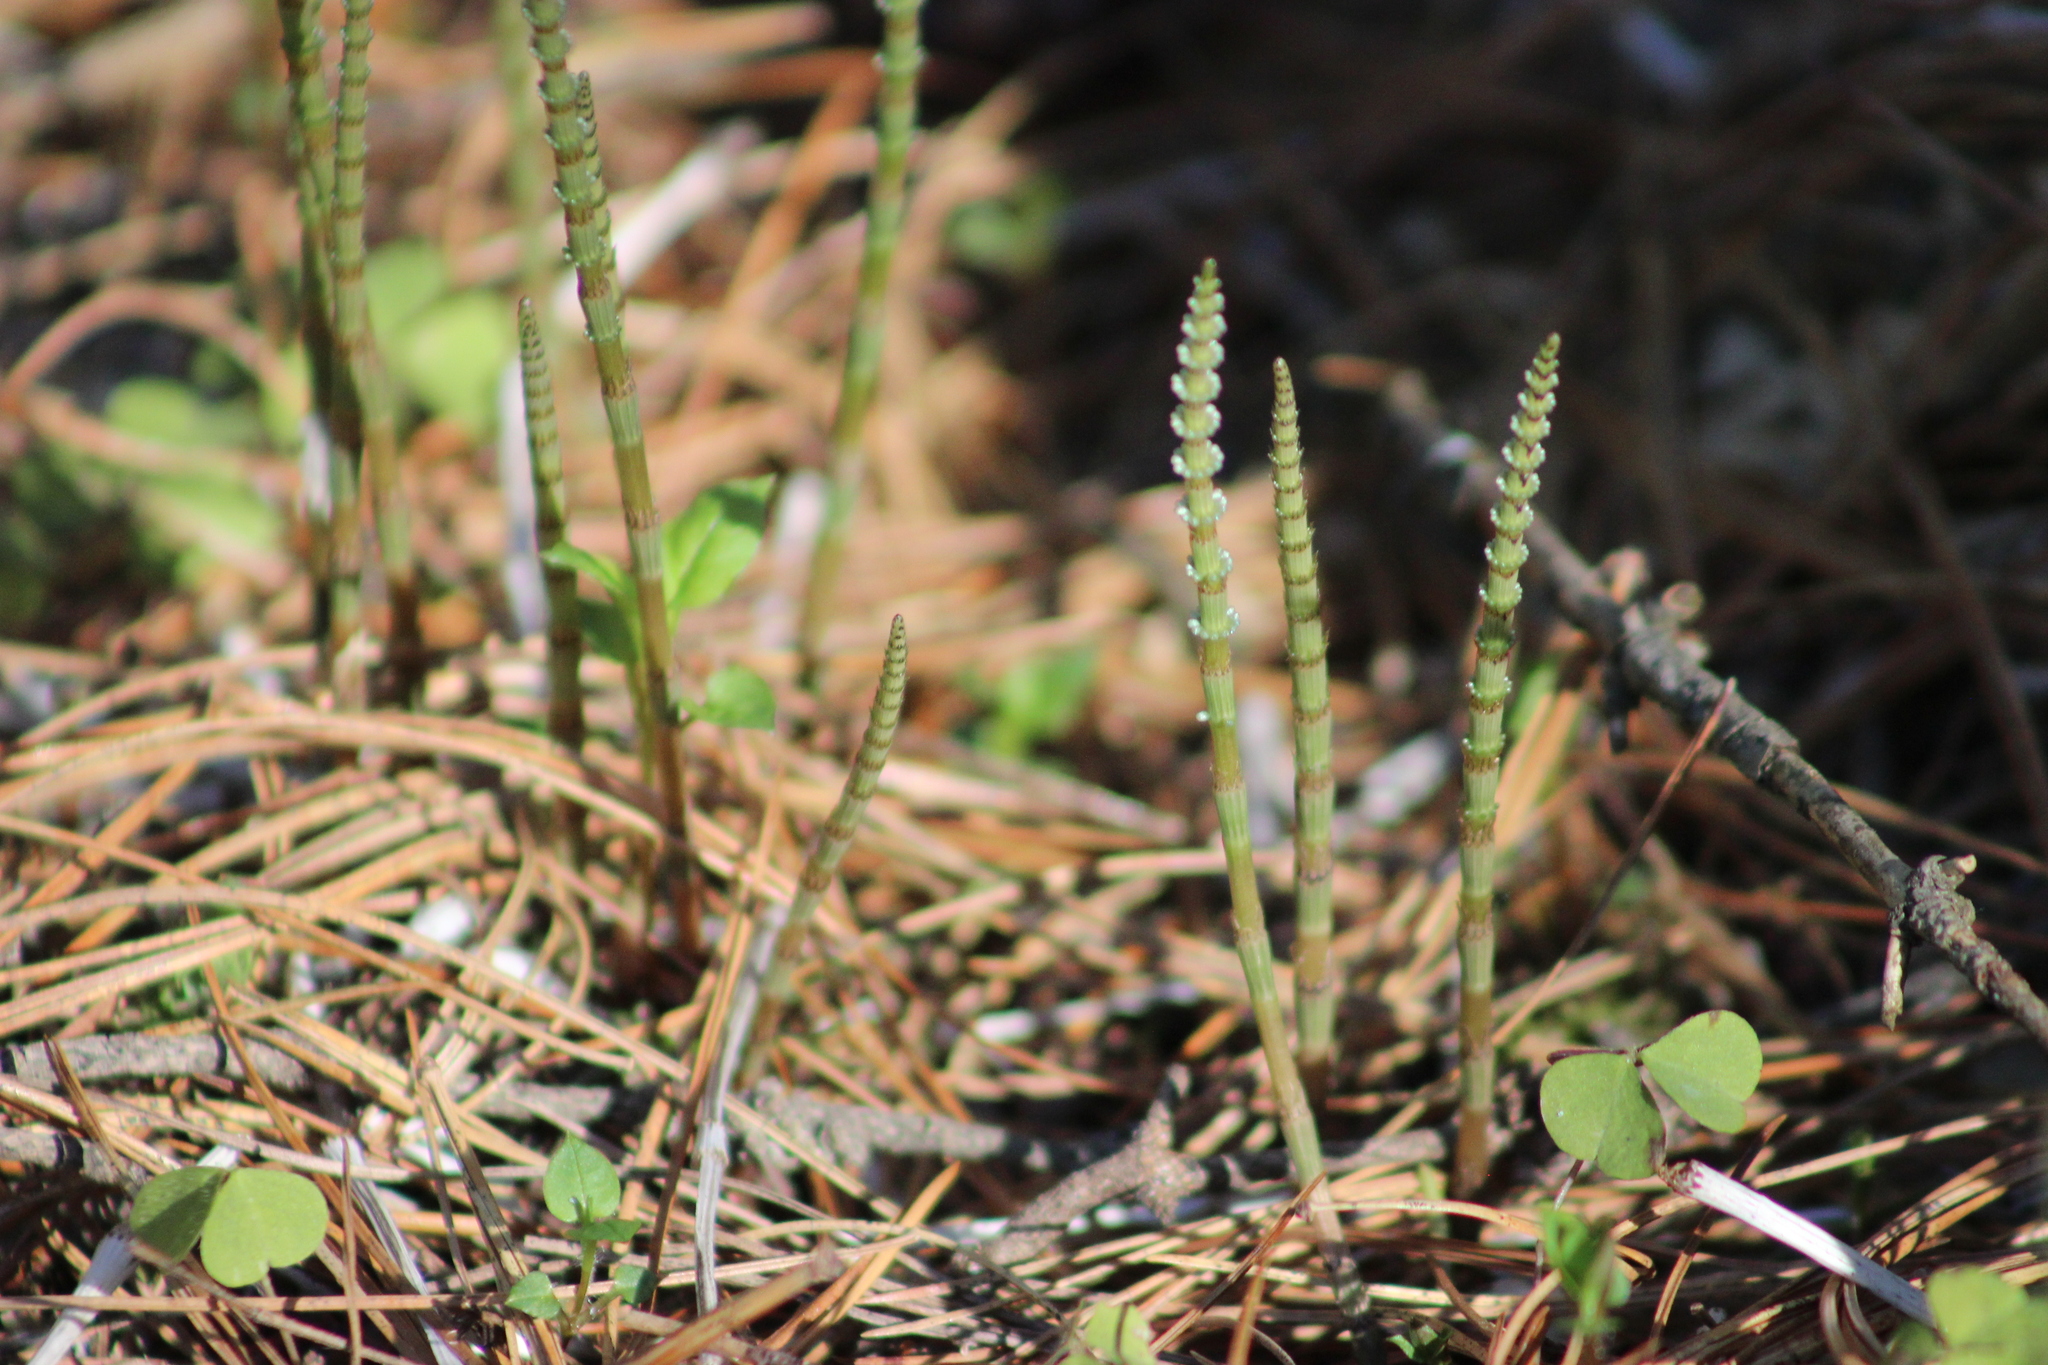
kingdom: Plantae
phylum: Tracheophyta
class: Polypodiopsida
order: Equisetales
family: Equisetaceae
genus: Equisetum
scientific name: Equisetum pratense
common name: Meadow horsetail
